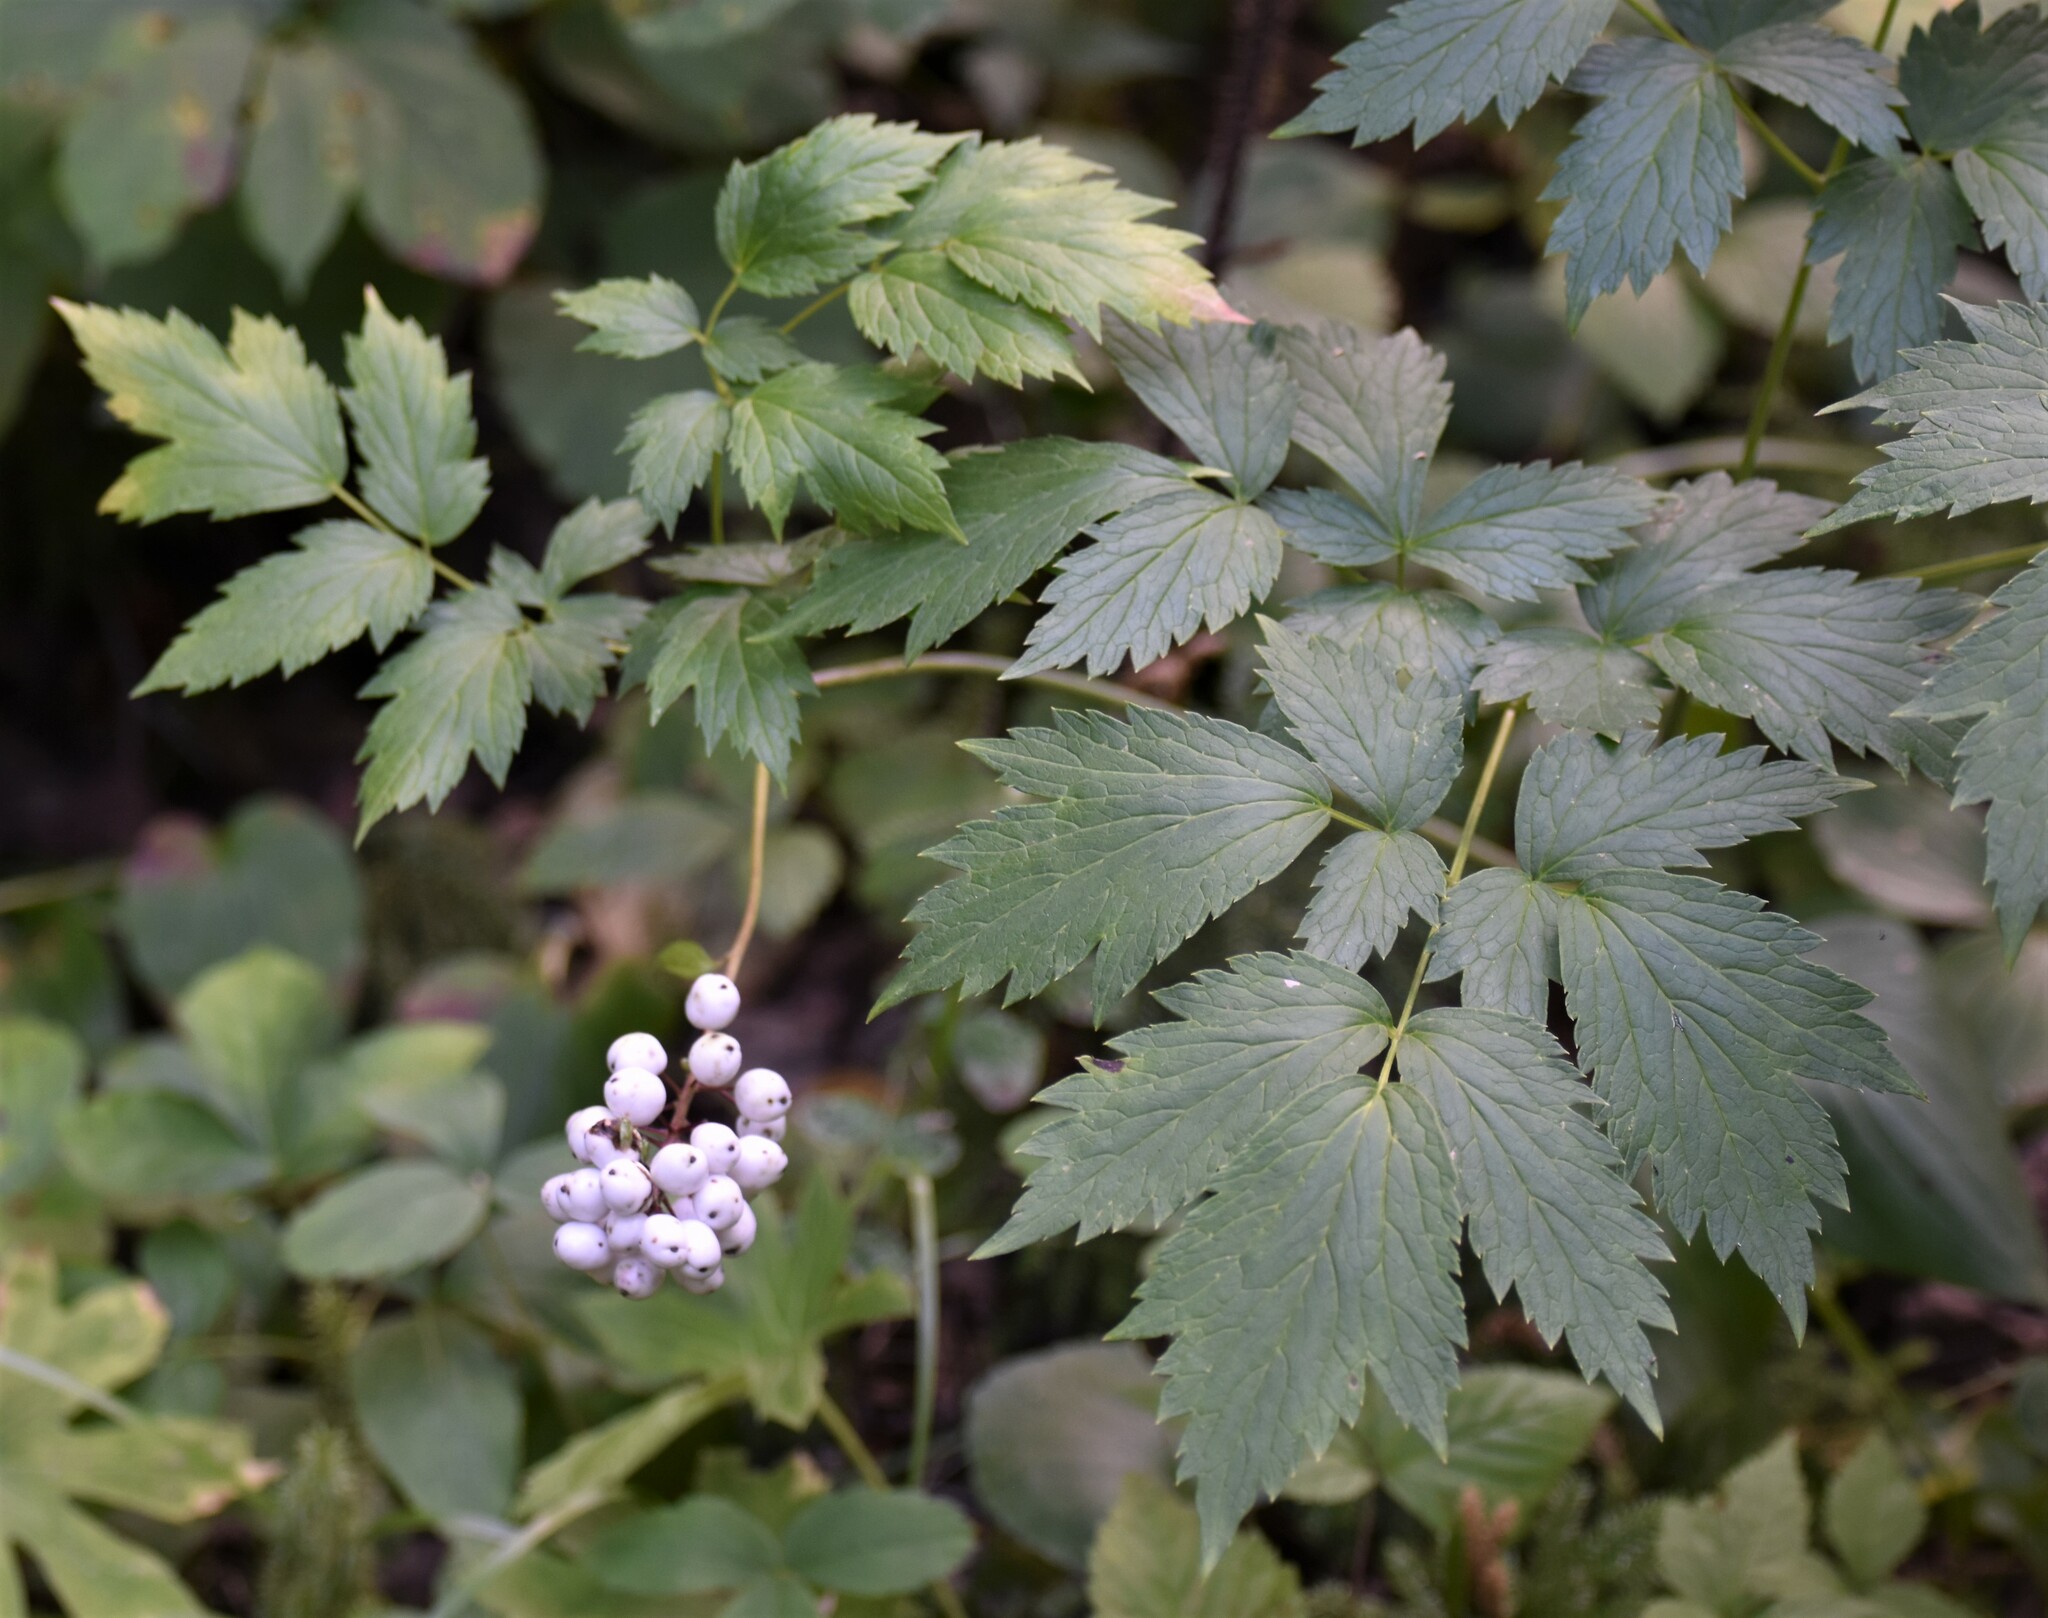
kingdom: Plantae
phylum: Tracheophyta
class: Magnoliopsida
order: Ranunculales
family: Ranunculaceae
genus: Actaea
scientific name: Actaea rubra
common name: Red baneberry
